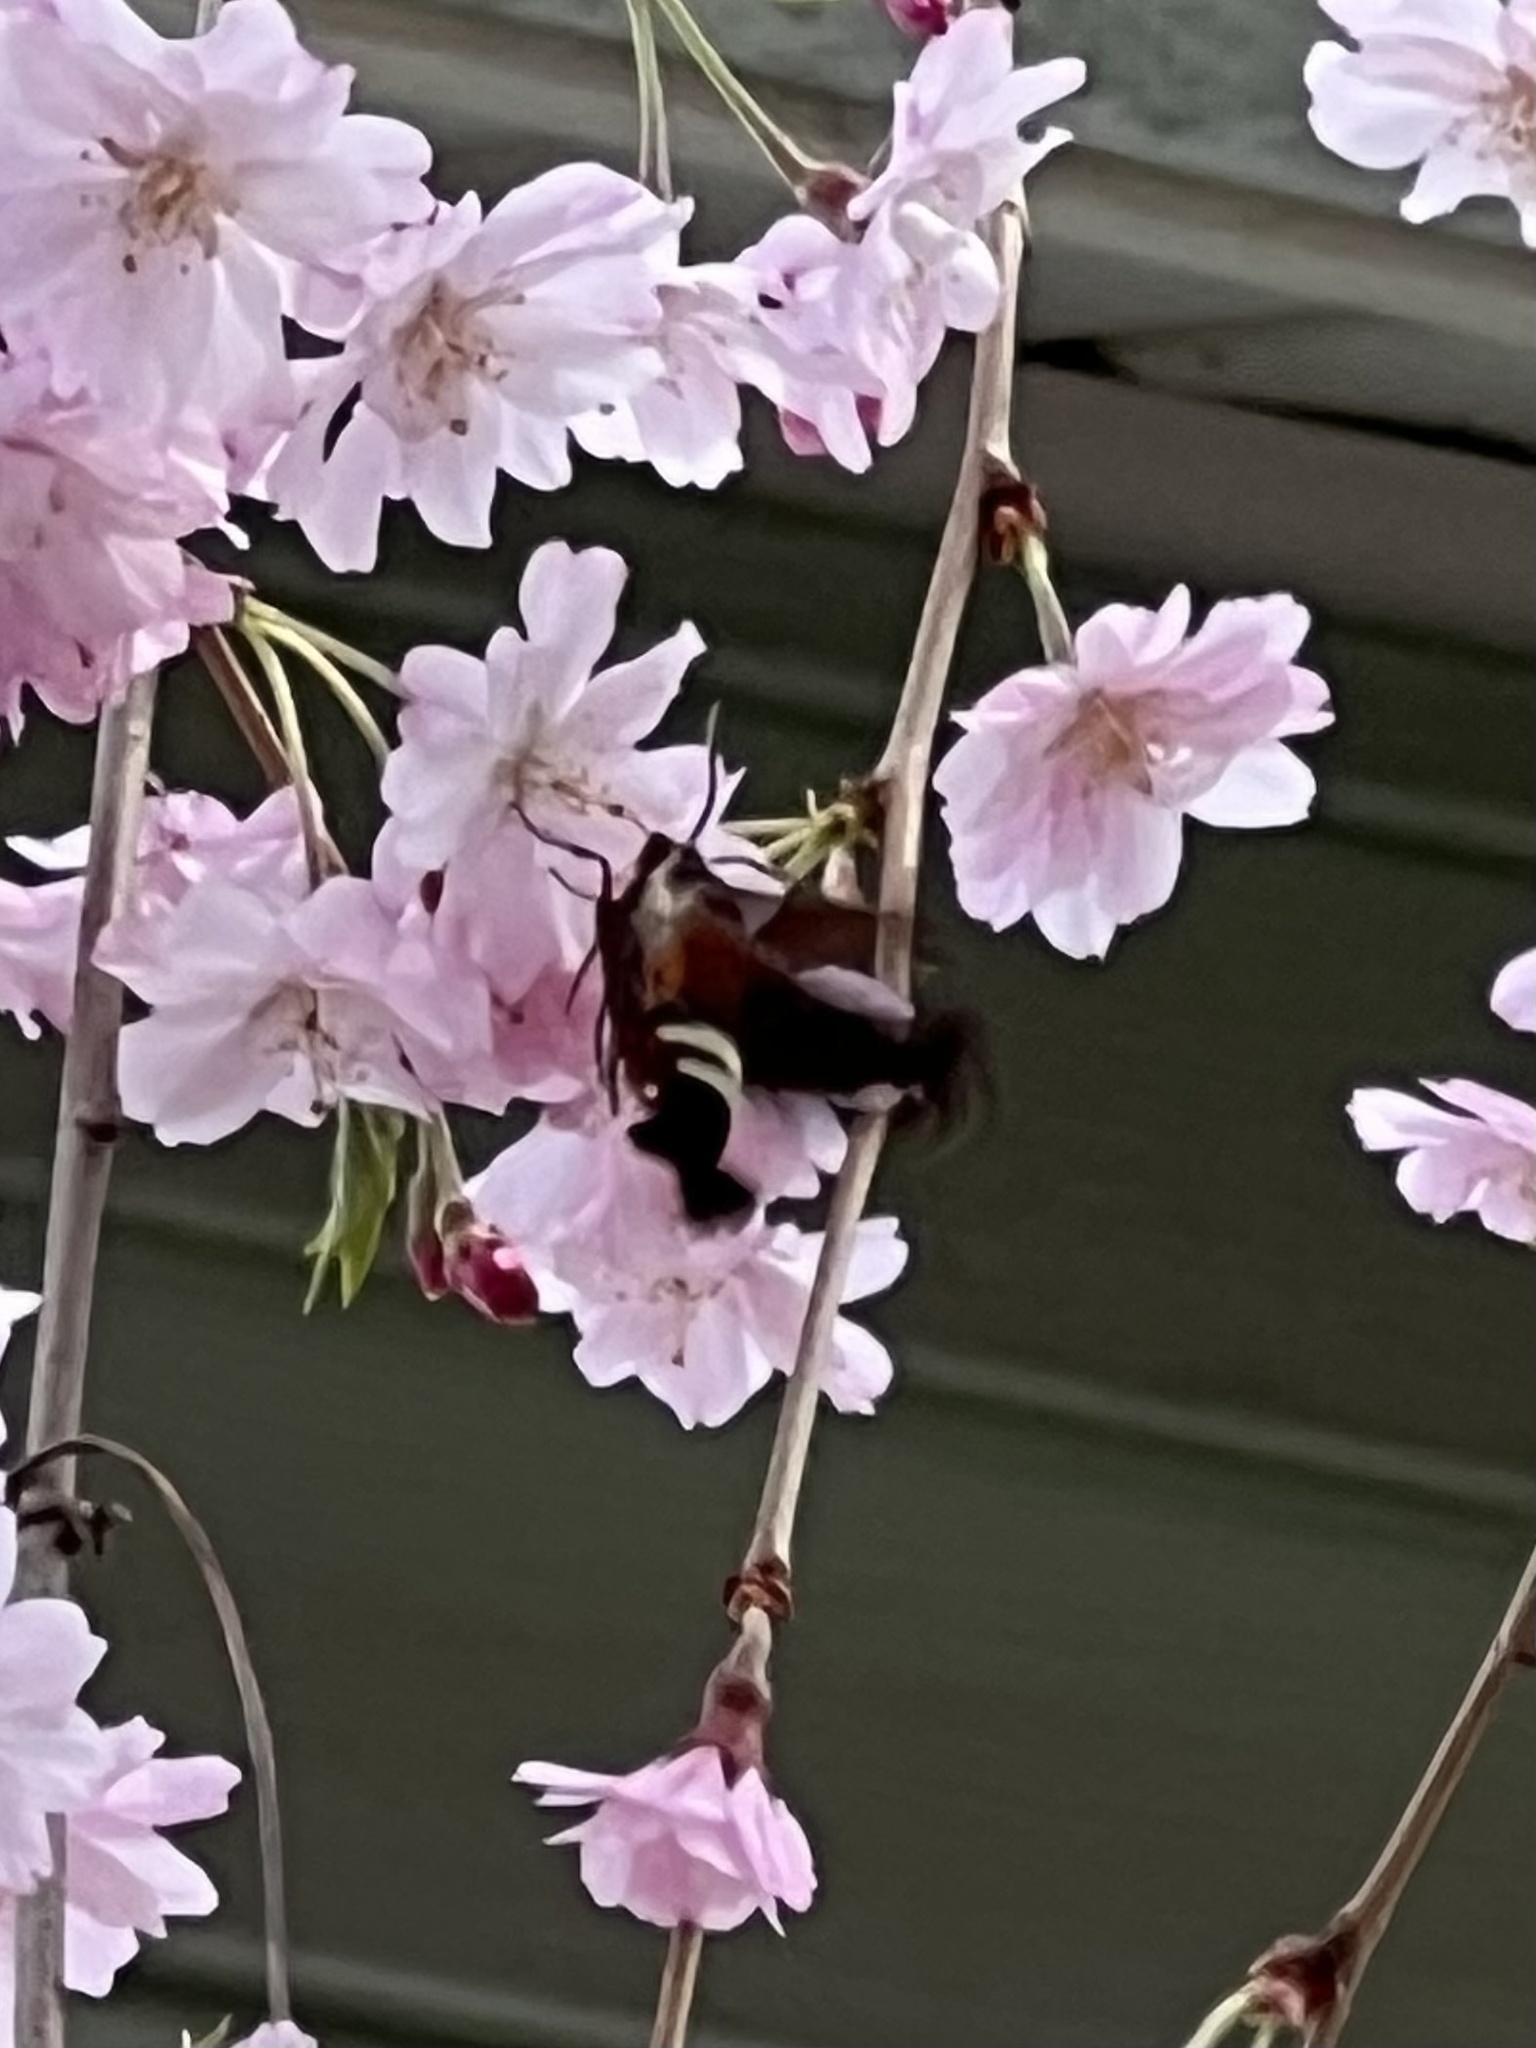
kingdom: Animalia
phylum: Arthropoda
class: Insecta
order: Lepidoptera
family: Sphingidae
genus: Amphion
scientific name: Amphion floridensis
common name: Nessus sphinx
